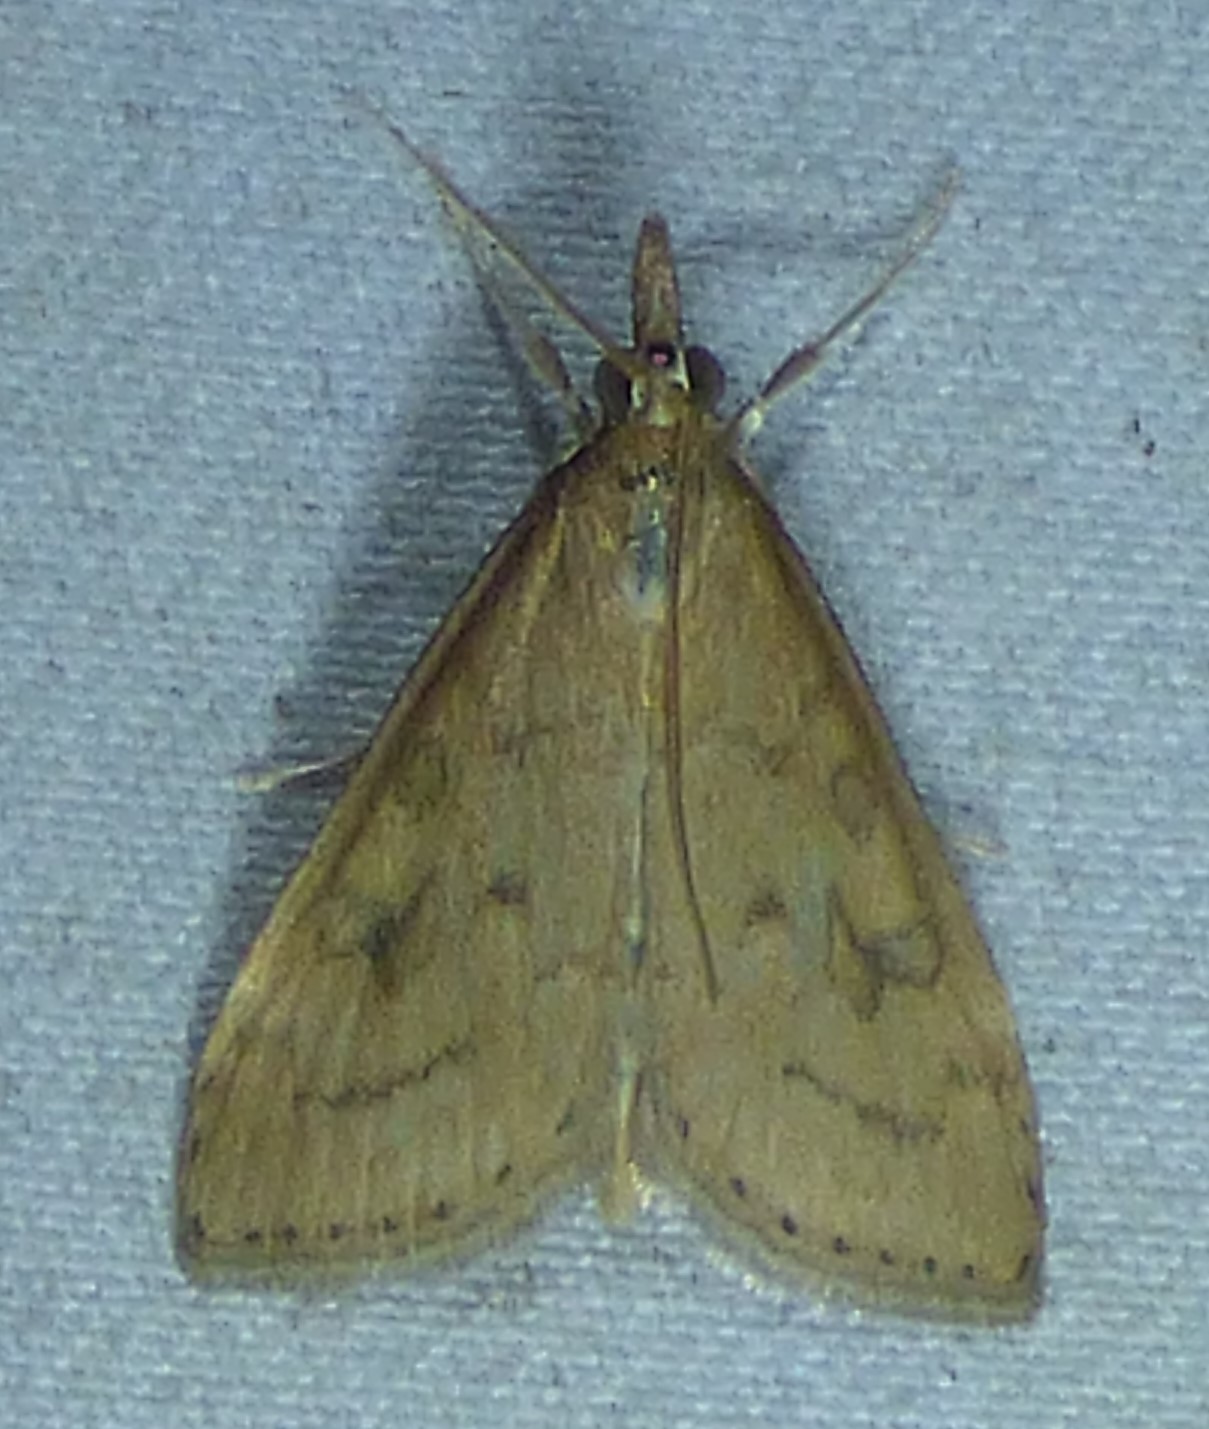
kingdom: Animalia
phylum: Arthropoda
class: Insecta
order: Lepidoptera
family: Crambidae
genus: Udea
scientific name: Udea rubigalis
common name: Celery leaftier moth
